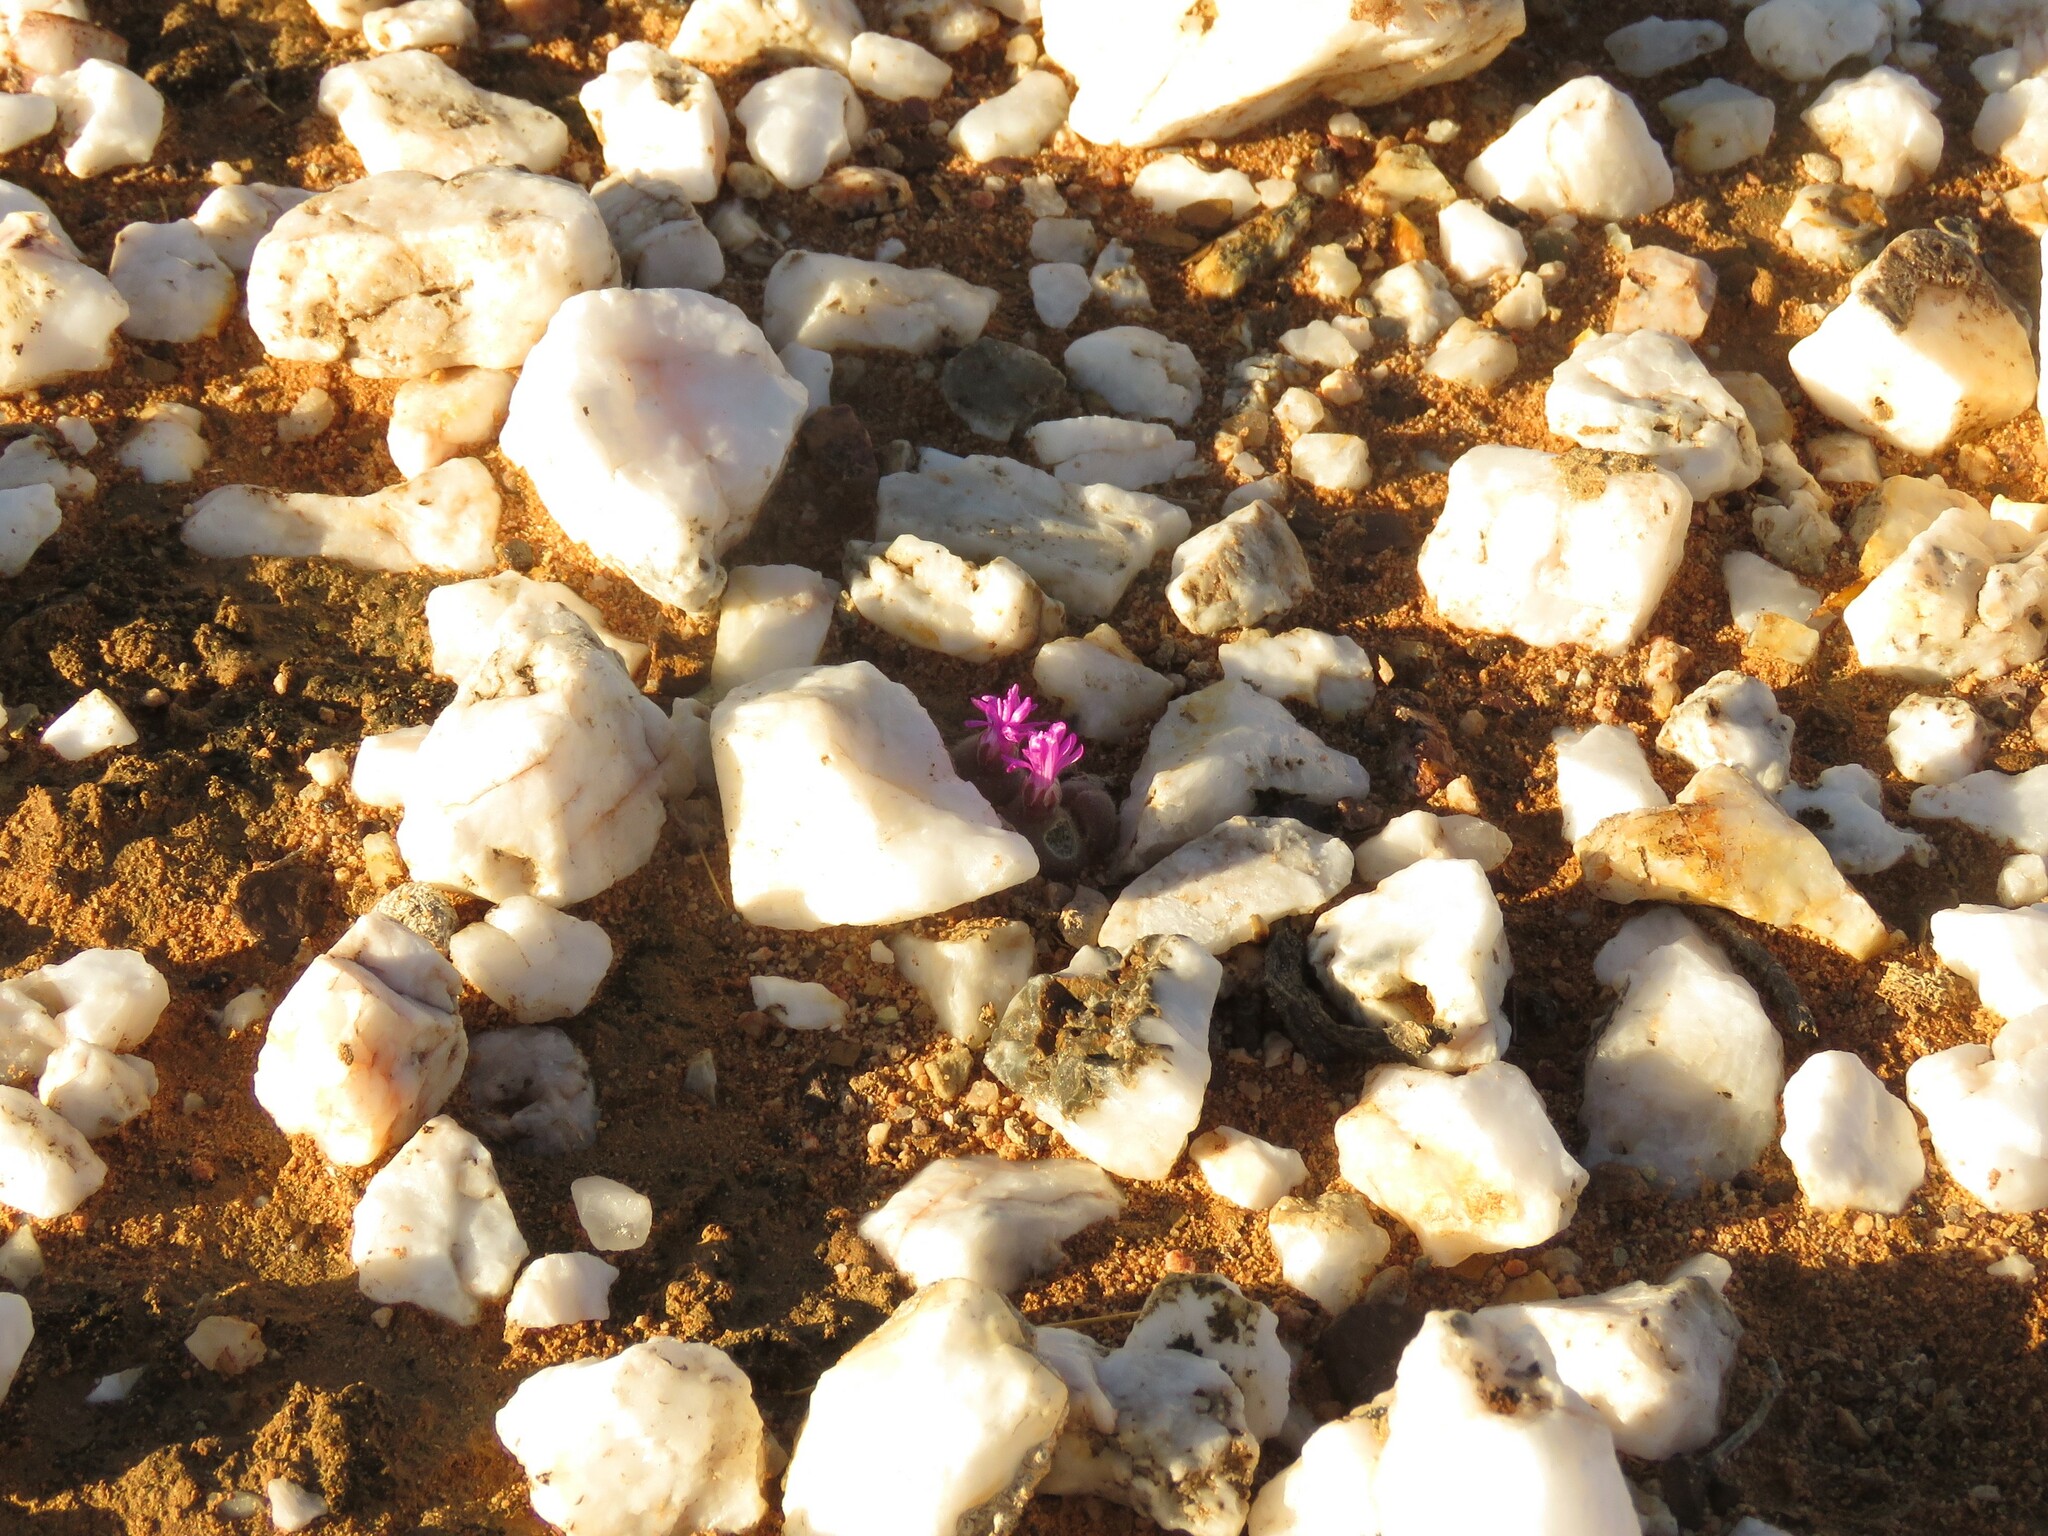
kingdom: Plantae
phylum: Tracheophyta
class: Magnoliopsida
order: Caryophyllales
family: Aizoaceae
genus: Gibbaeum
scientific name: Gibbaeum pilosulum
